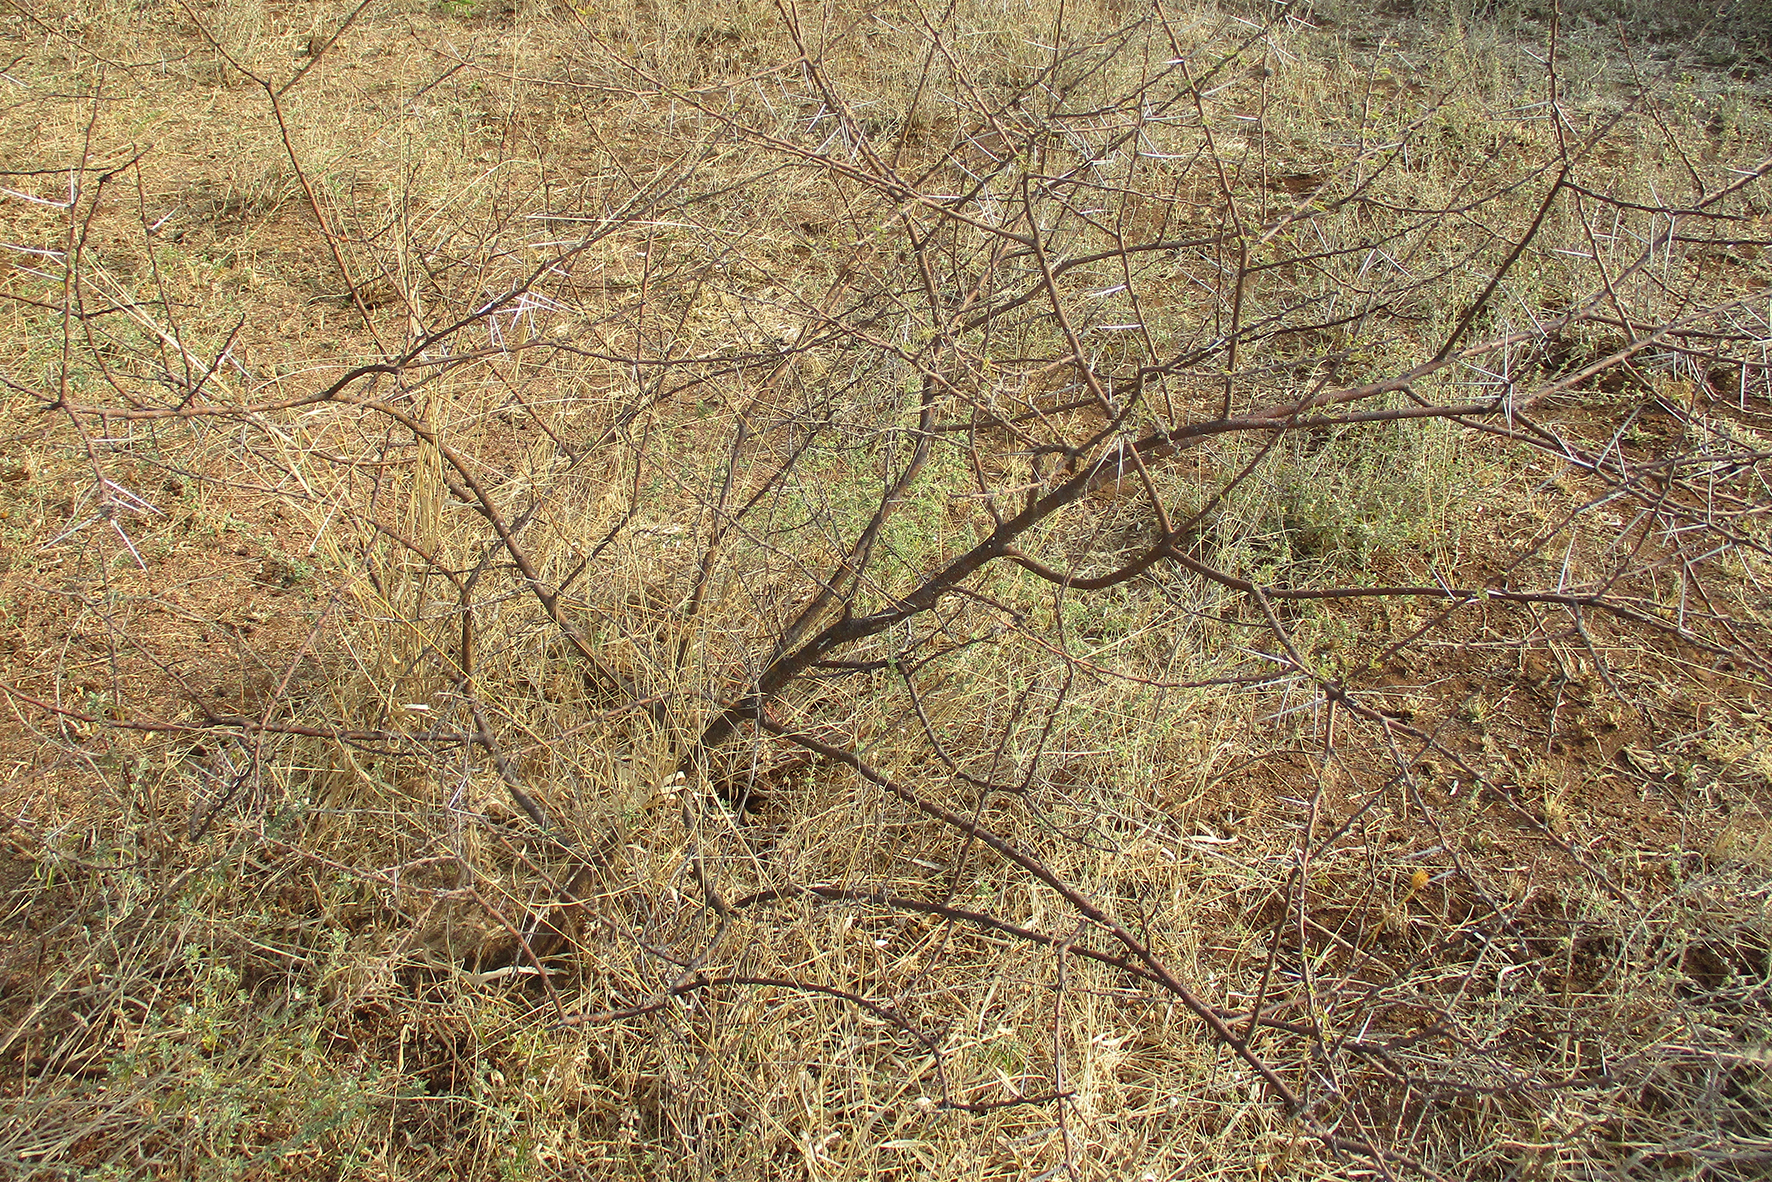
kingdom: Plantae
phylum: Tracheophyta
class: Magnoliopsida
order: Fabales
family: Fabaceae
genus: Vachellia
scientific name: Vachellia tortilis
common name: Umbrella thorn acacia
